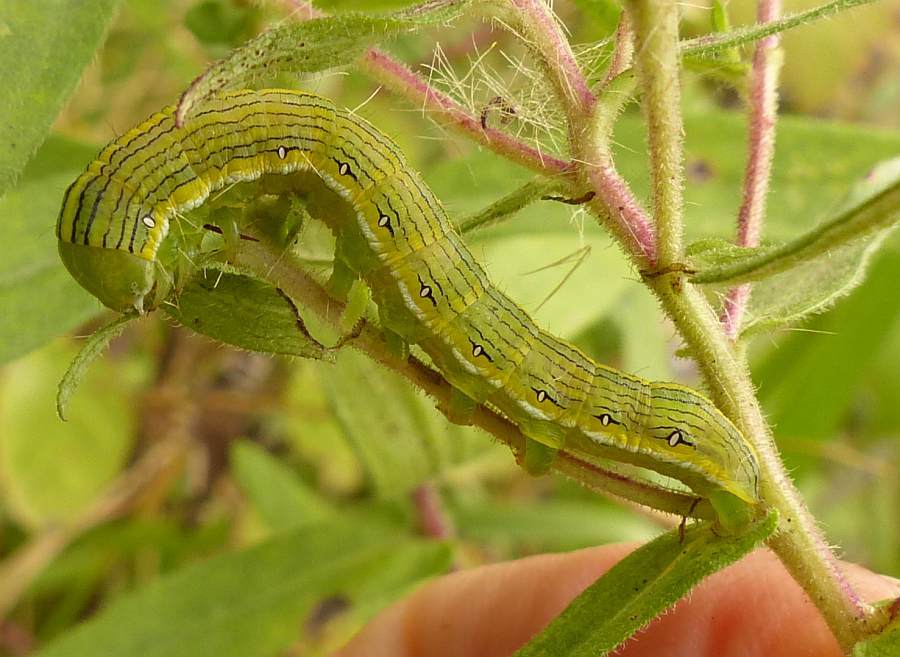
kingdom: Animalia
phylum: Arthropoda
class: Insecta
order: Lepidoptera
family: Noctuidae
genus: Cucullia
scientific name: Cucullia asteroides
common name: Asteroid moth
